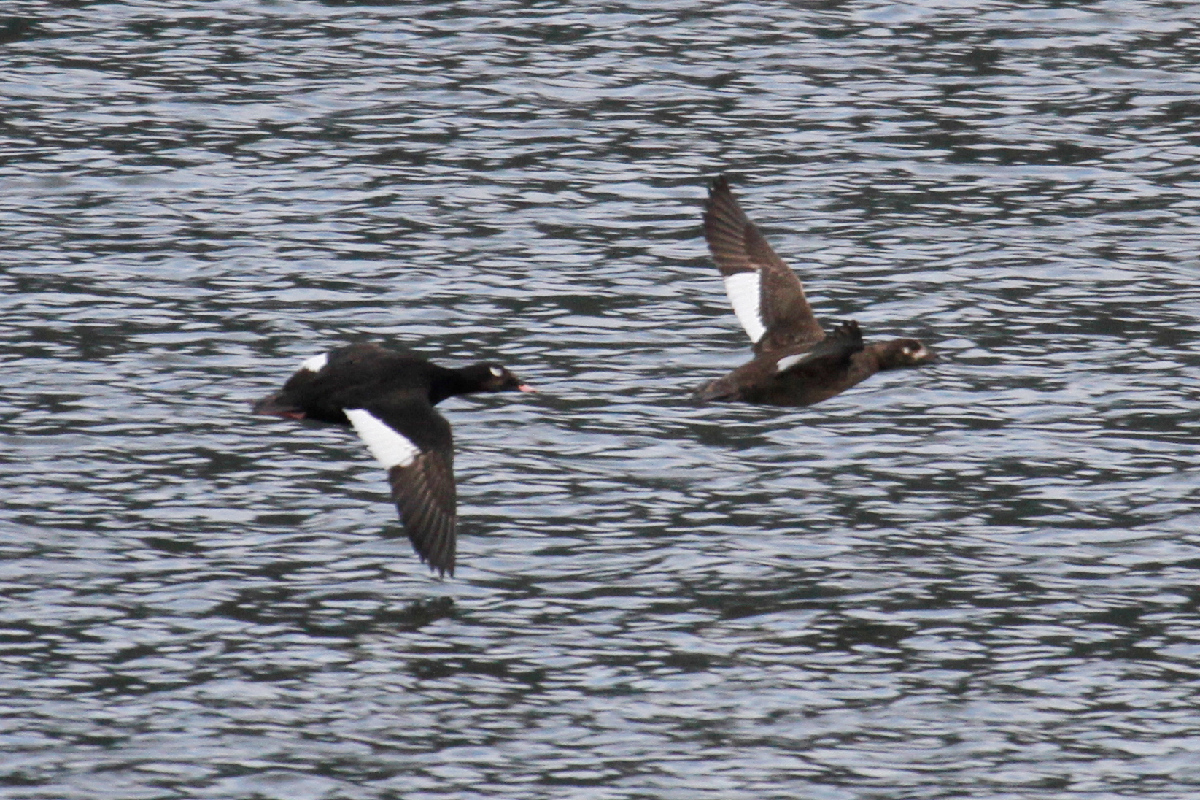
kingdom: Animalia
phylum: Chordata
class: Aves
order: Anseriformes
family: Anatidae
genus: Melanitta
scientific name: Melanitta deglandi
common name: White-winged scoter
